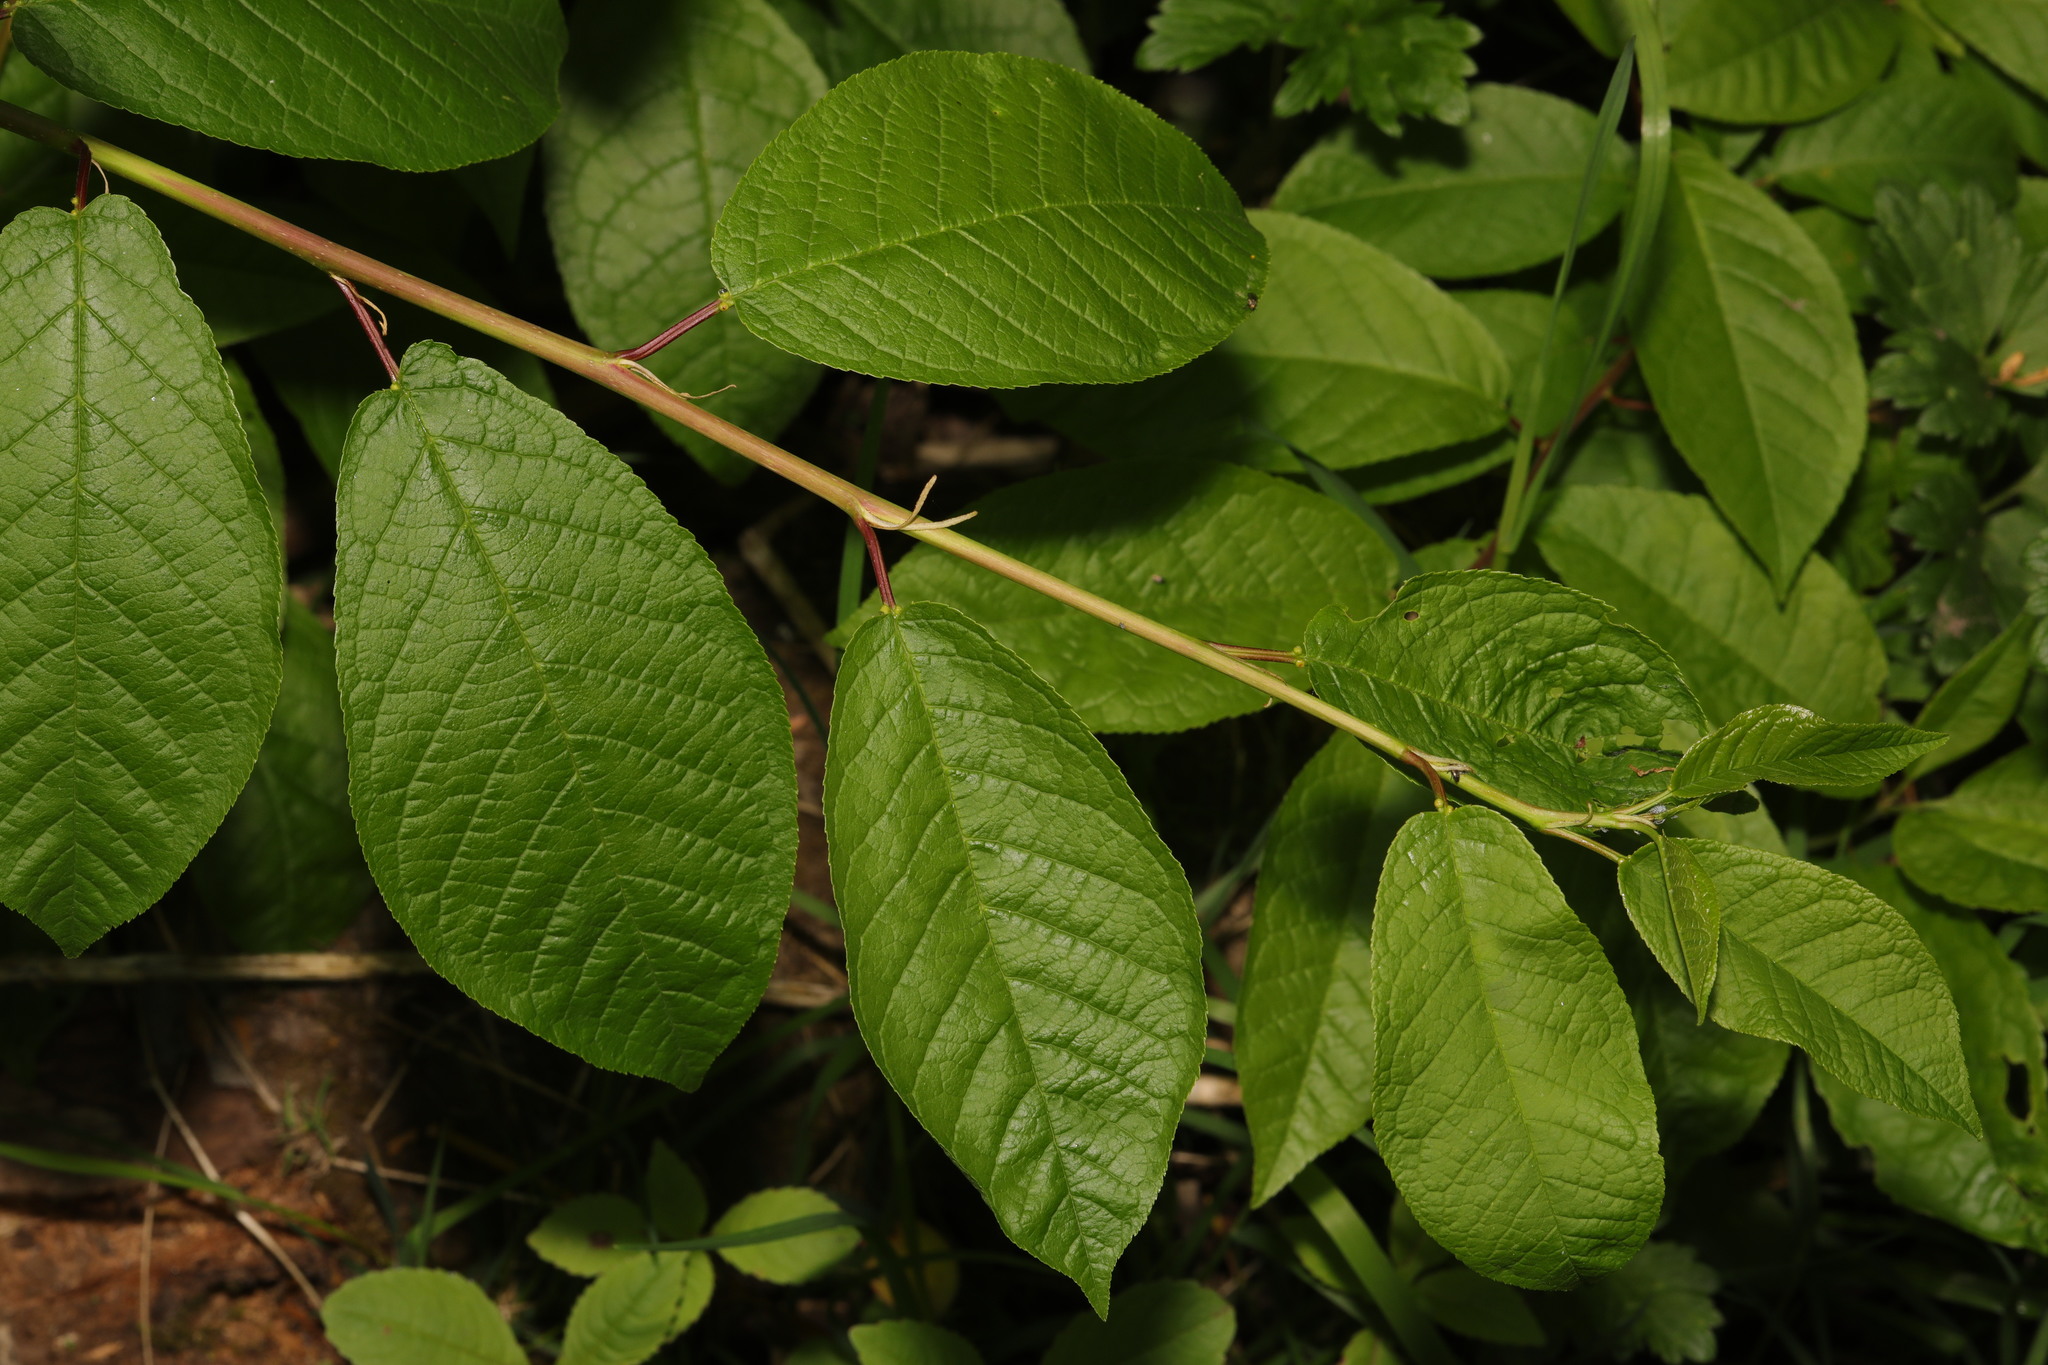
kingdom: Plantae
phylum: Tracheophyta
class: Magnoliopsida
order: Rosales
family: Rosaceae
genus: Prunus
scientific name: Prunus padus
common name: Bird cherry
